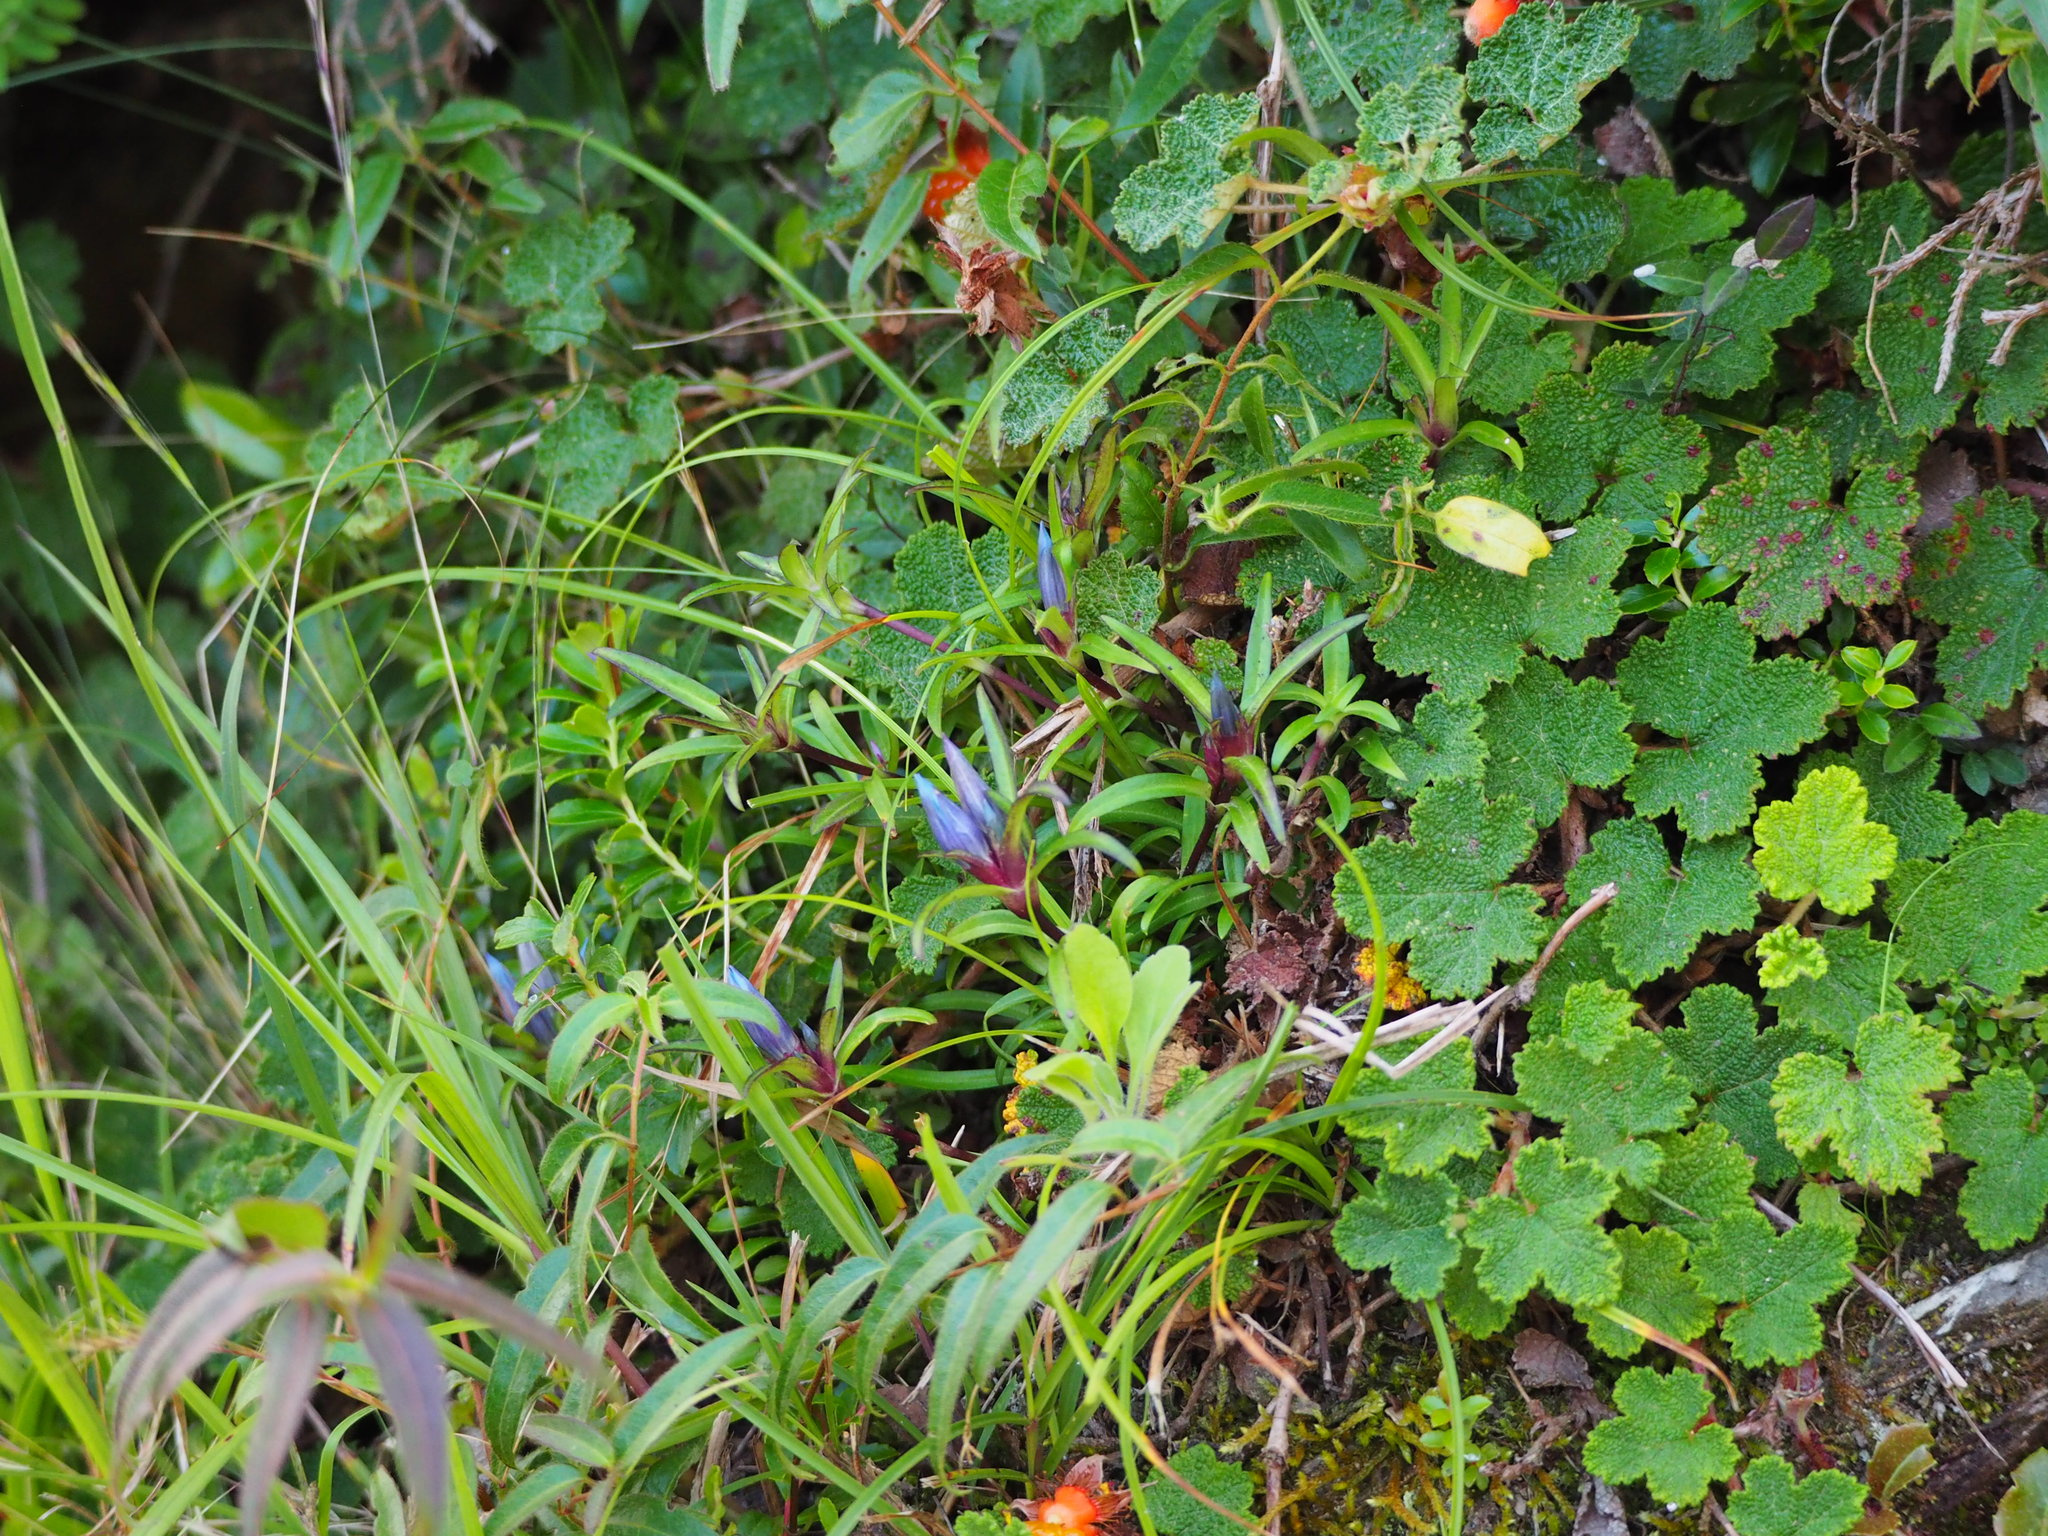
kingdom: Plantae
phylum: Tracheophyta
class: Magnoliopsida
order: Gentianales
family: Gentianaceae
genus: Gentiana
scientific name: Gentiana davidii
